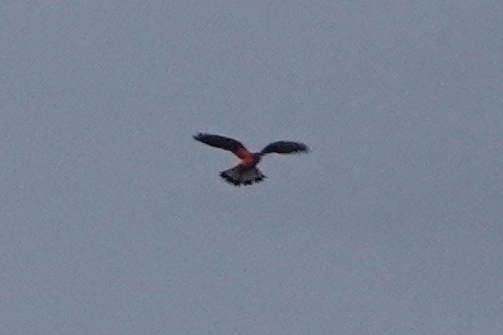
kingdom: Animalia
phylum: Chordata
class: Aves
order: Falconiformes
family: Falconidae
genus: Falco
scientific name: Falco tinnunculus
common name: Common kestrel
